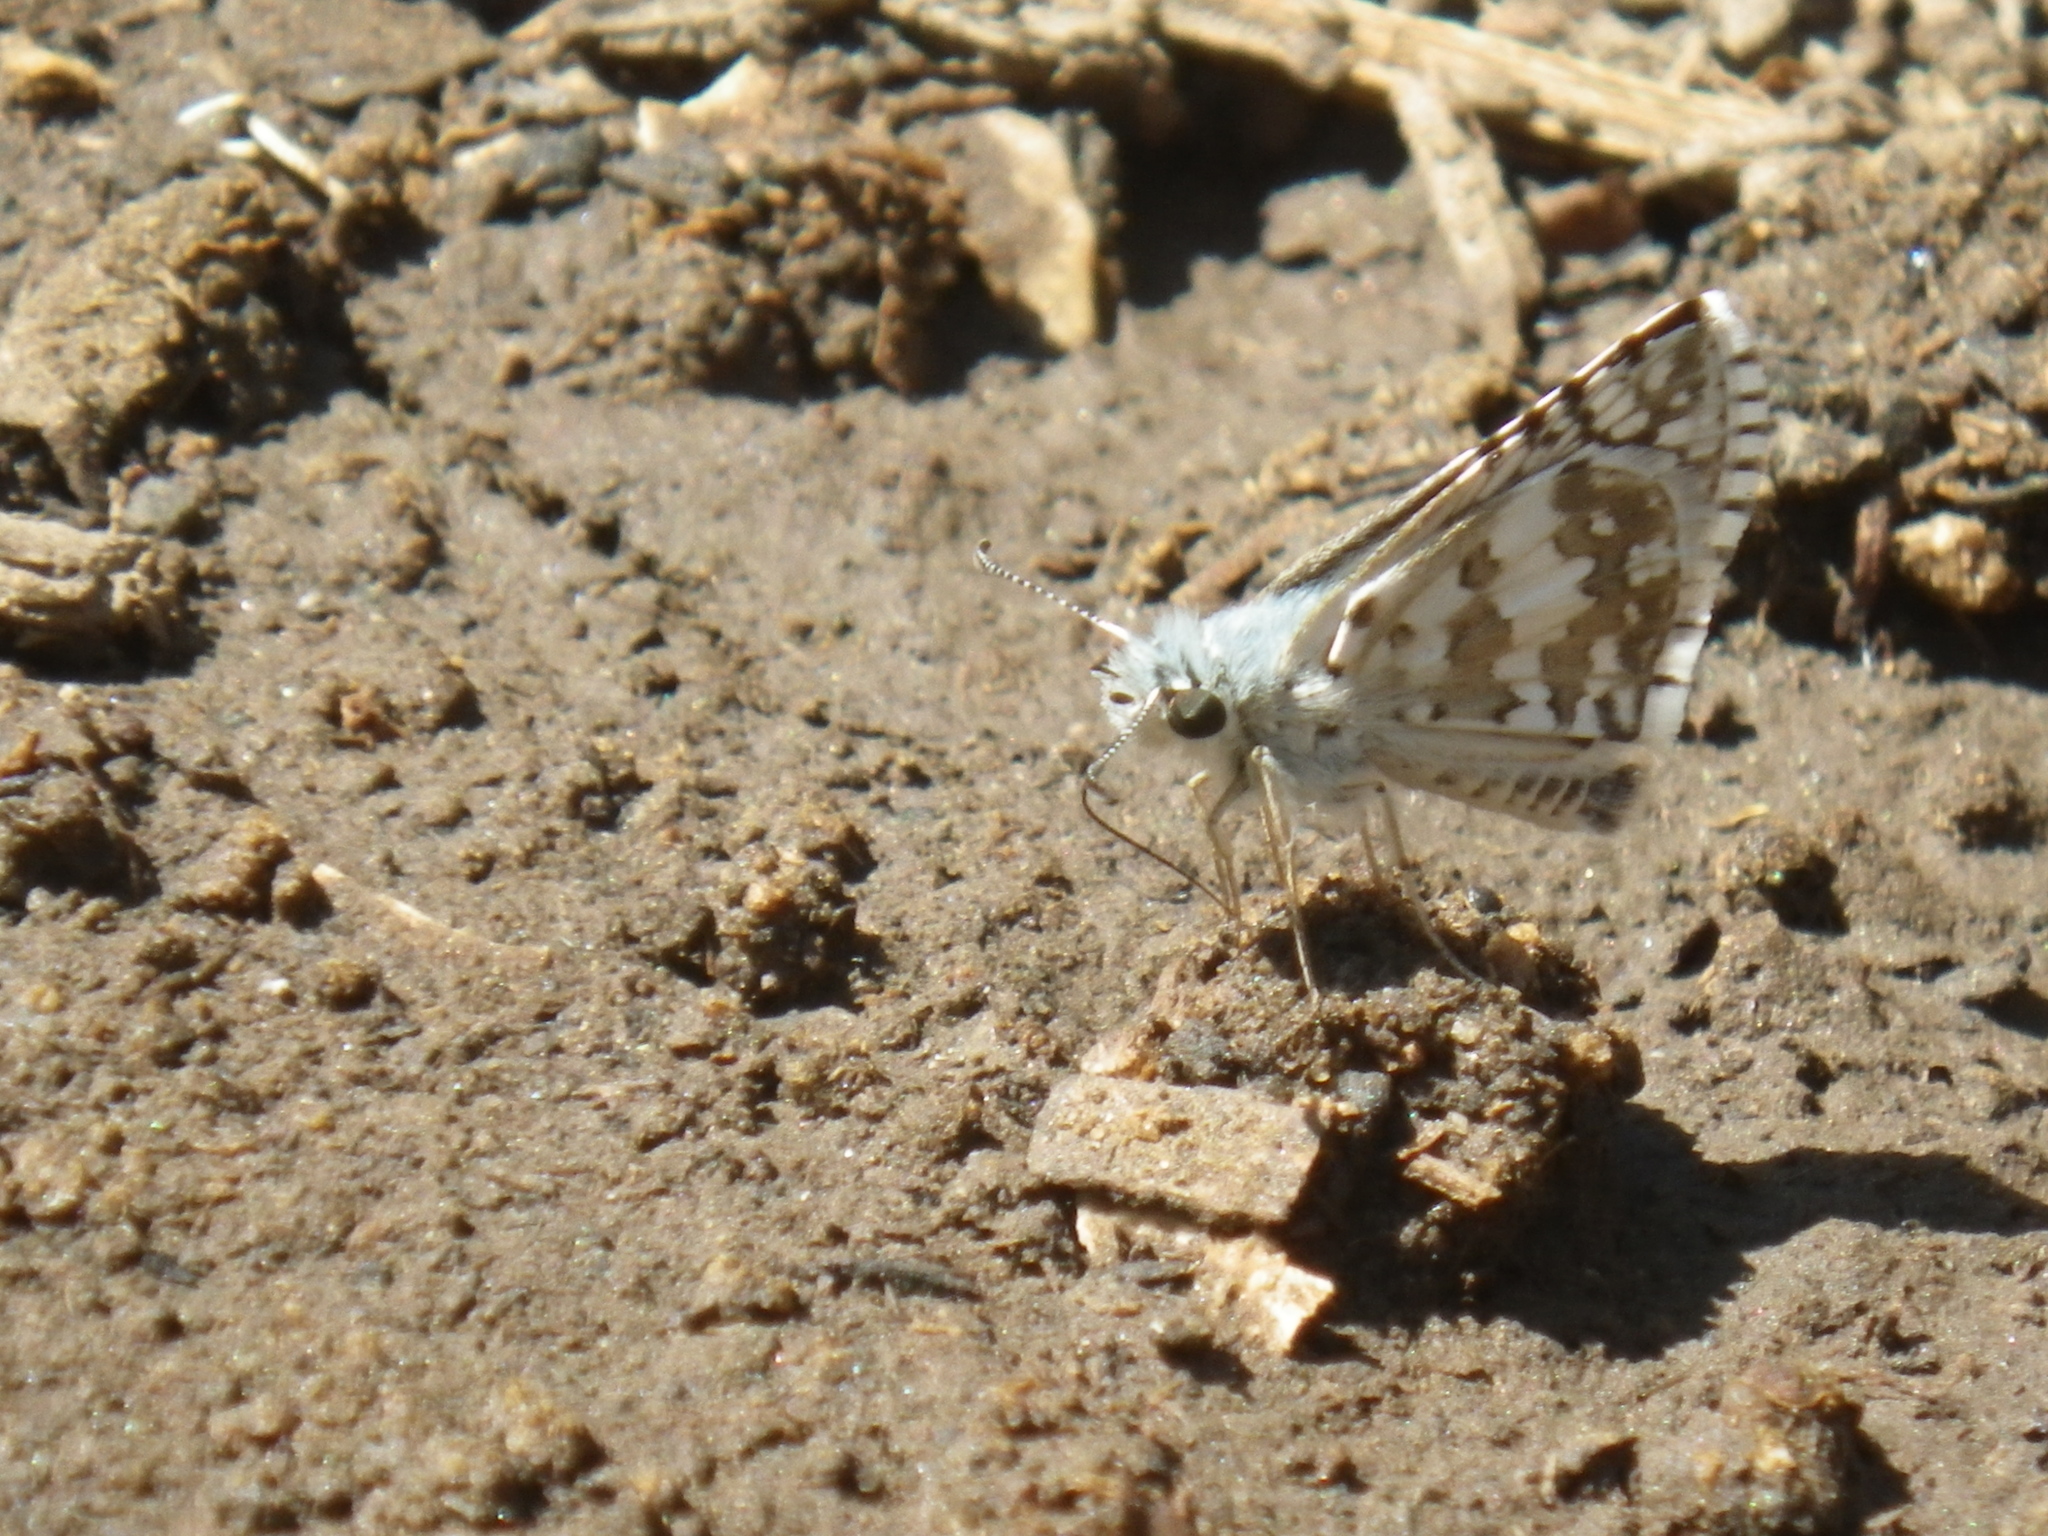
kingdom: Animalia
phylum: Arthropoda
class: Insecta
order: Lepidoptera
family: Hesperiidae
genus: Burnsius
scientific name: Burnsius communis
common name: Common checkered-skipper
